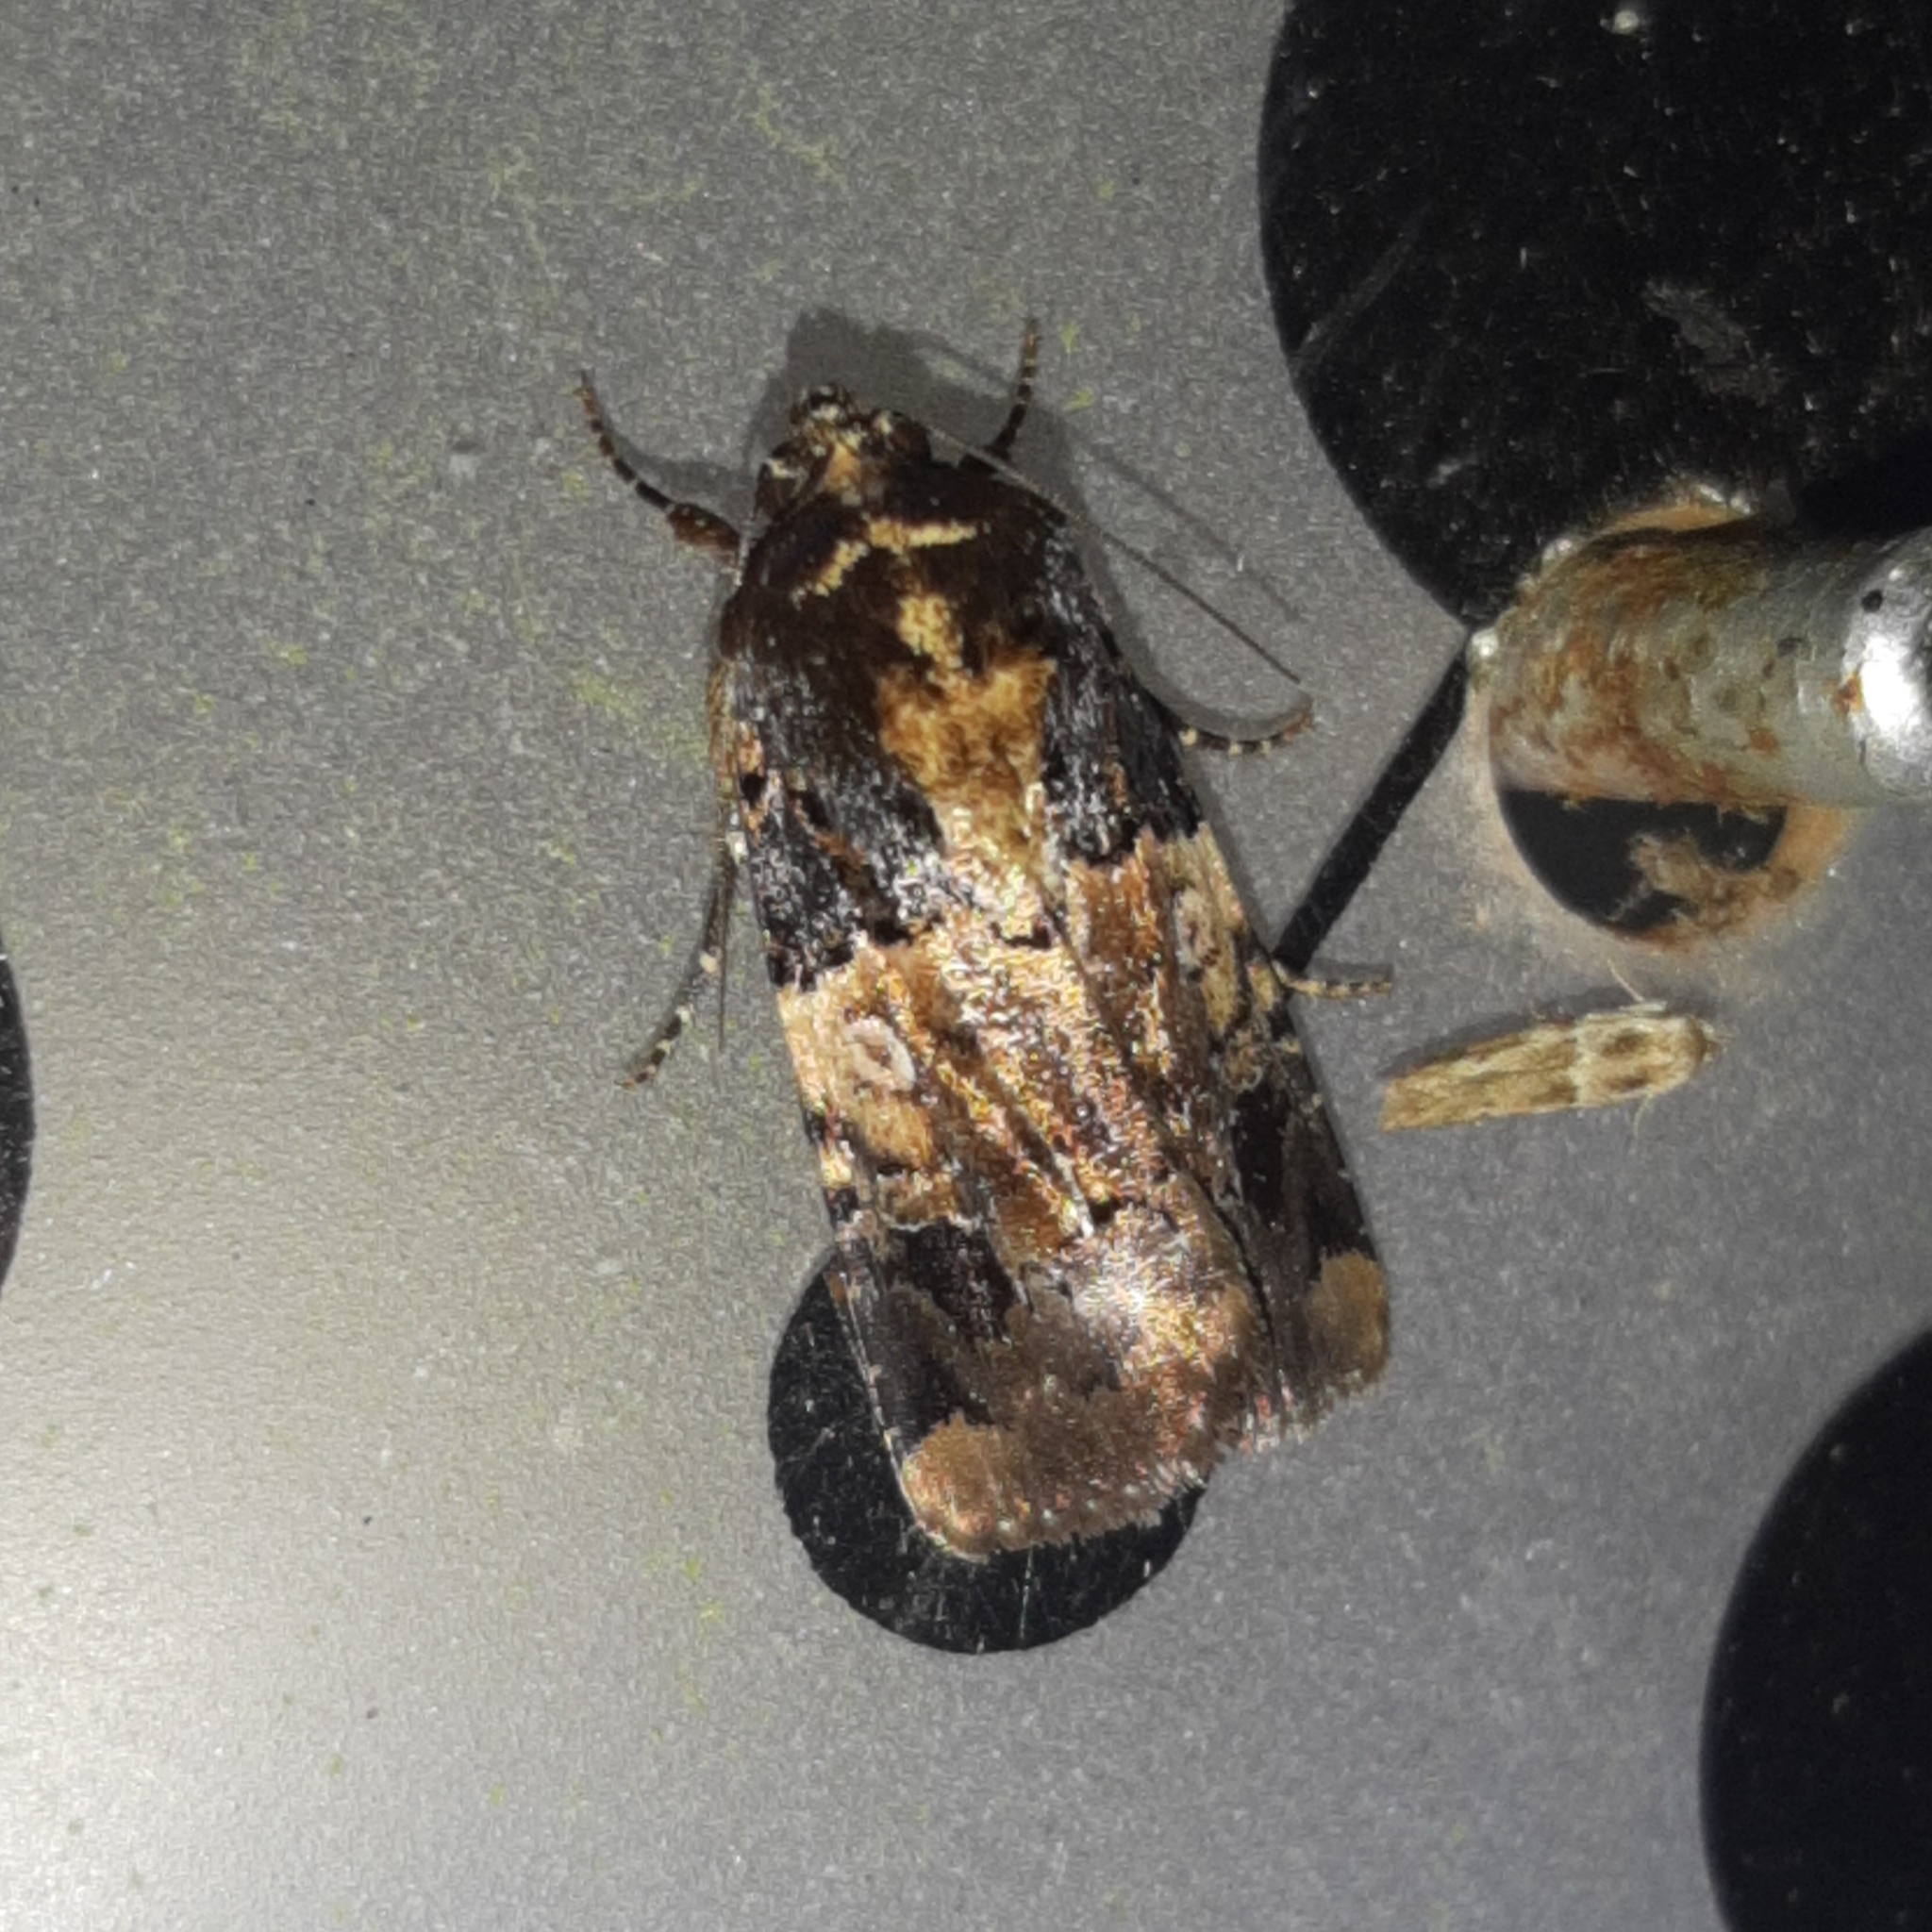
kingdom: Animalia
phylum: Arthropoda
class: Insecta
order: Lepidoptera
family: Noctuidae
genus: Hampsonodes
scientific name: Hampsonodes confisa
